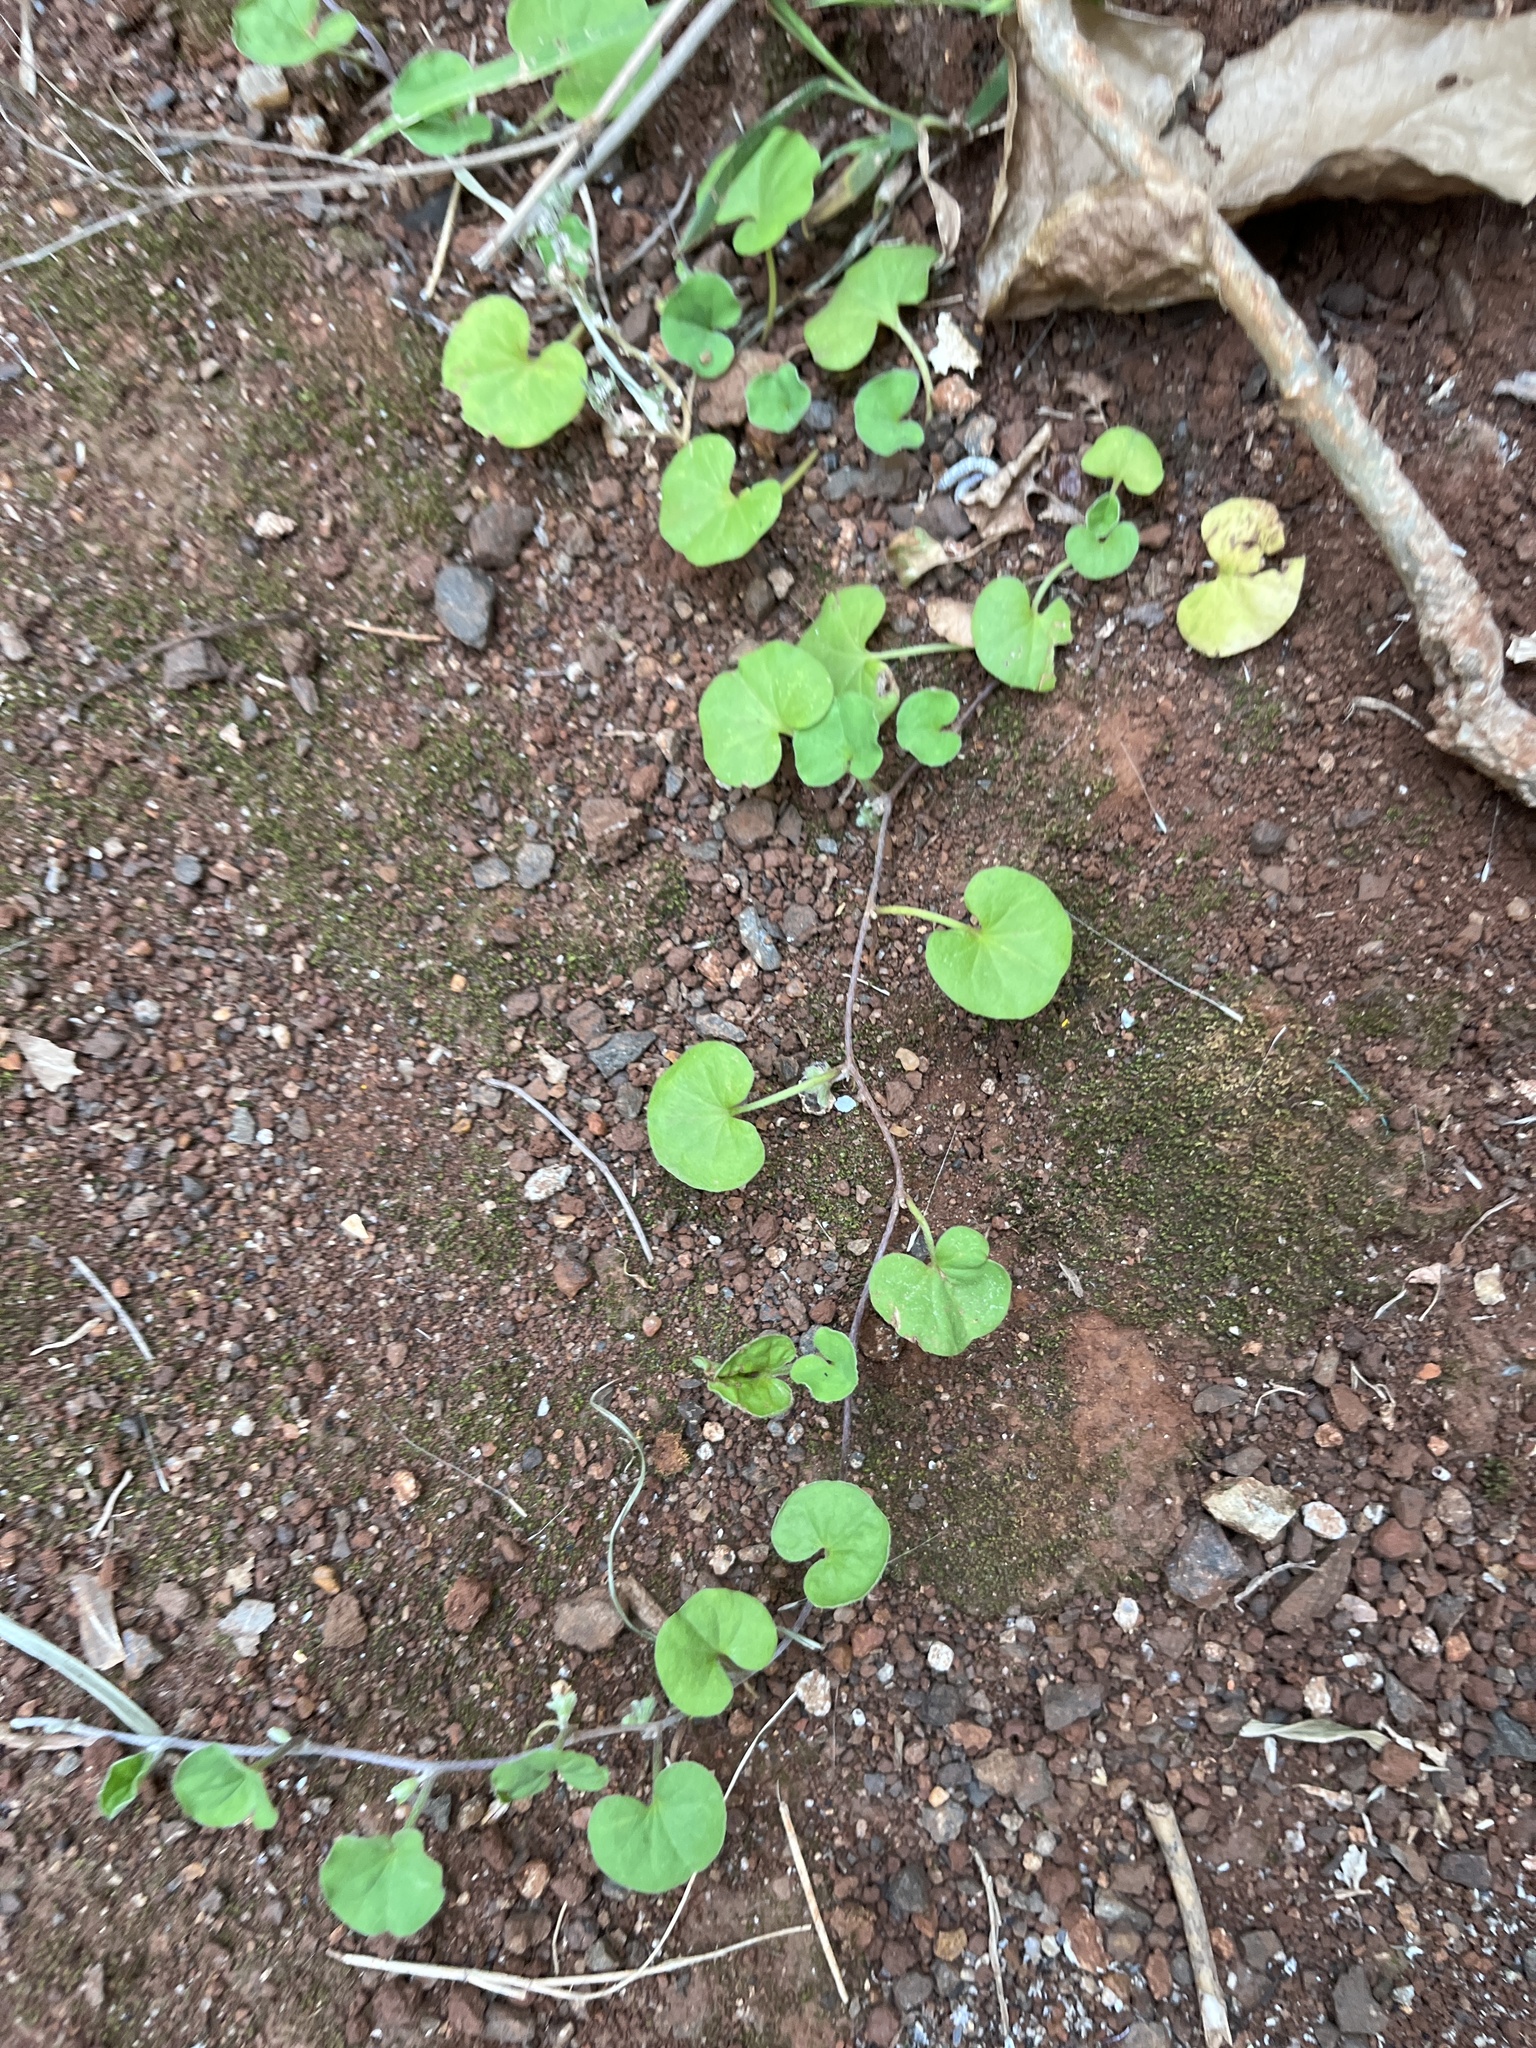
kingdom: Plantae
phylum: Tracheophyta
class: Magnoliopsida
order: Solanales
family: Convolvulaceae
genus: Dichondra
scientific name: Dichondra micrantha
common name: Kidneyweed
